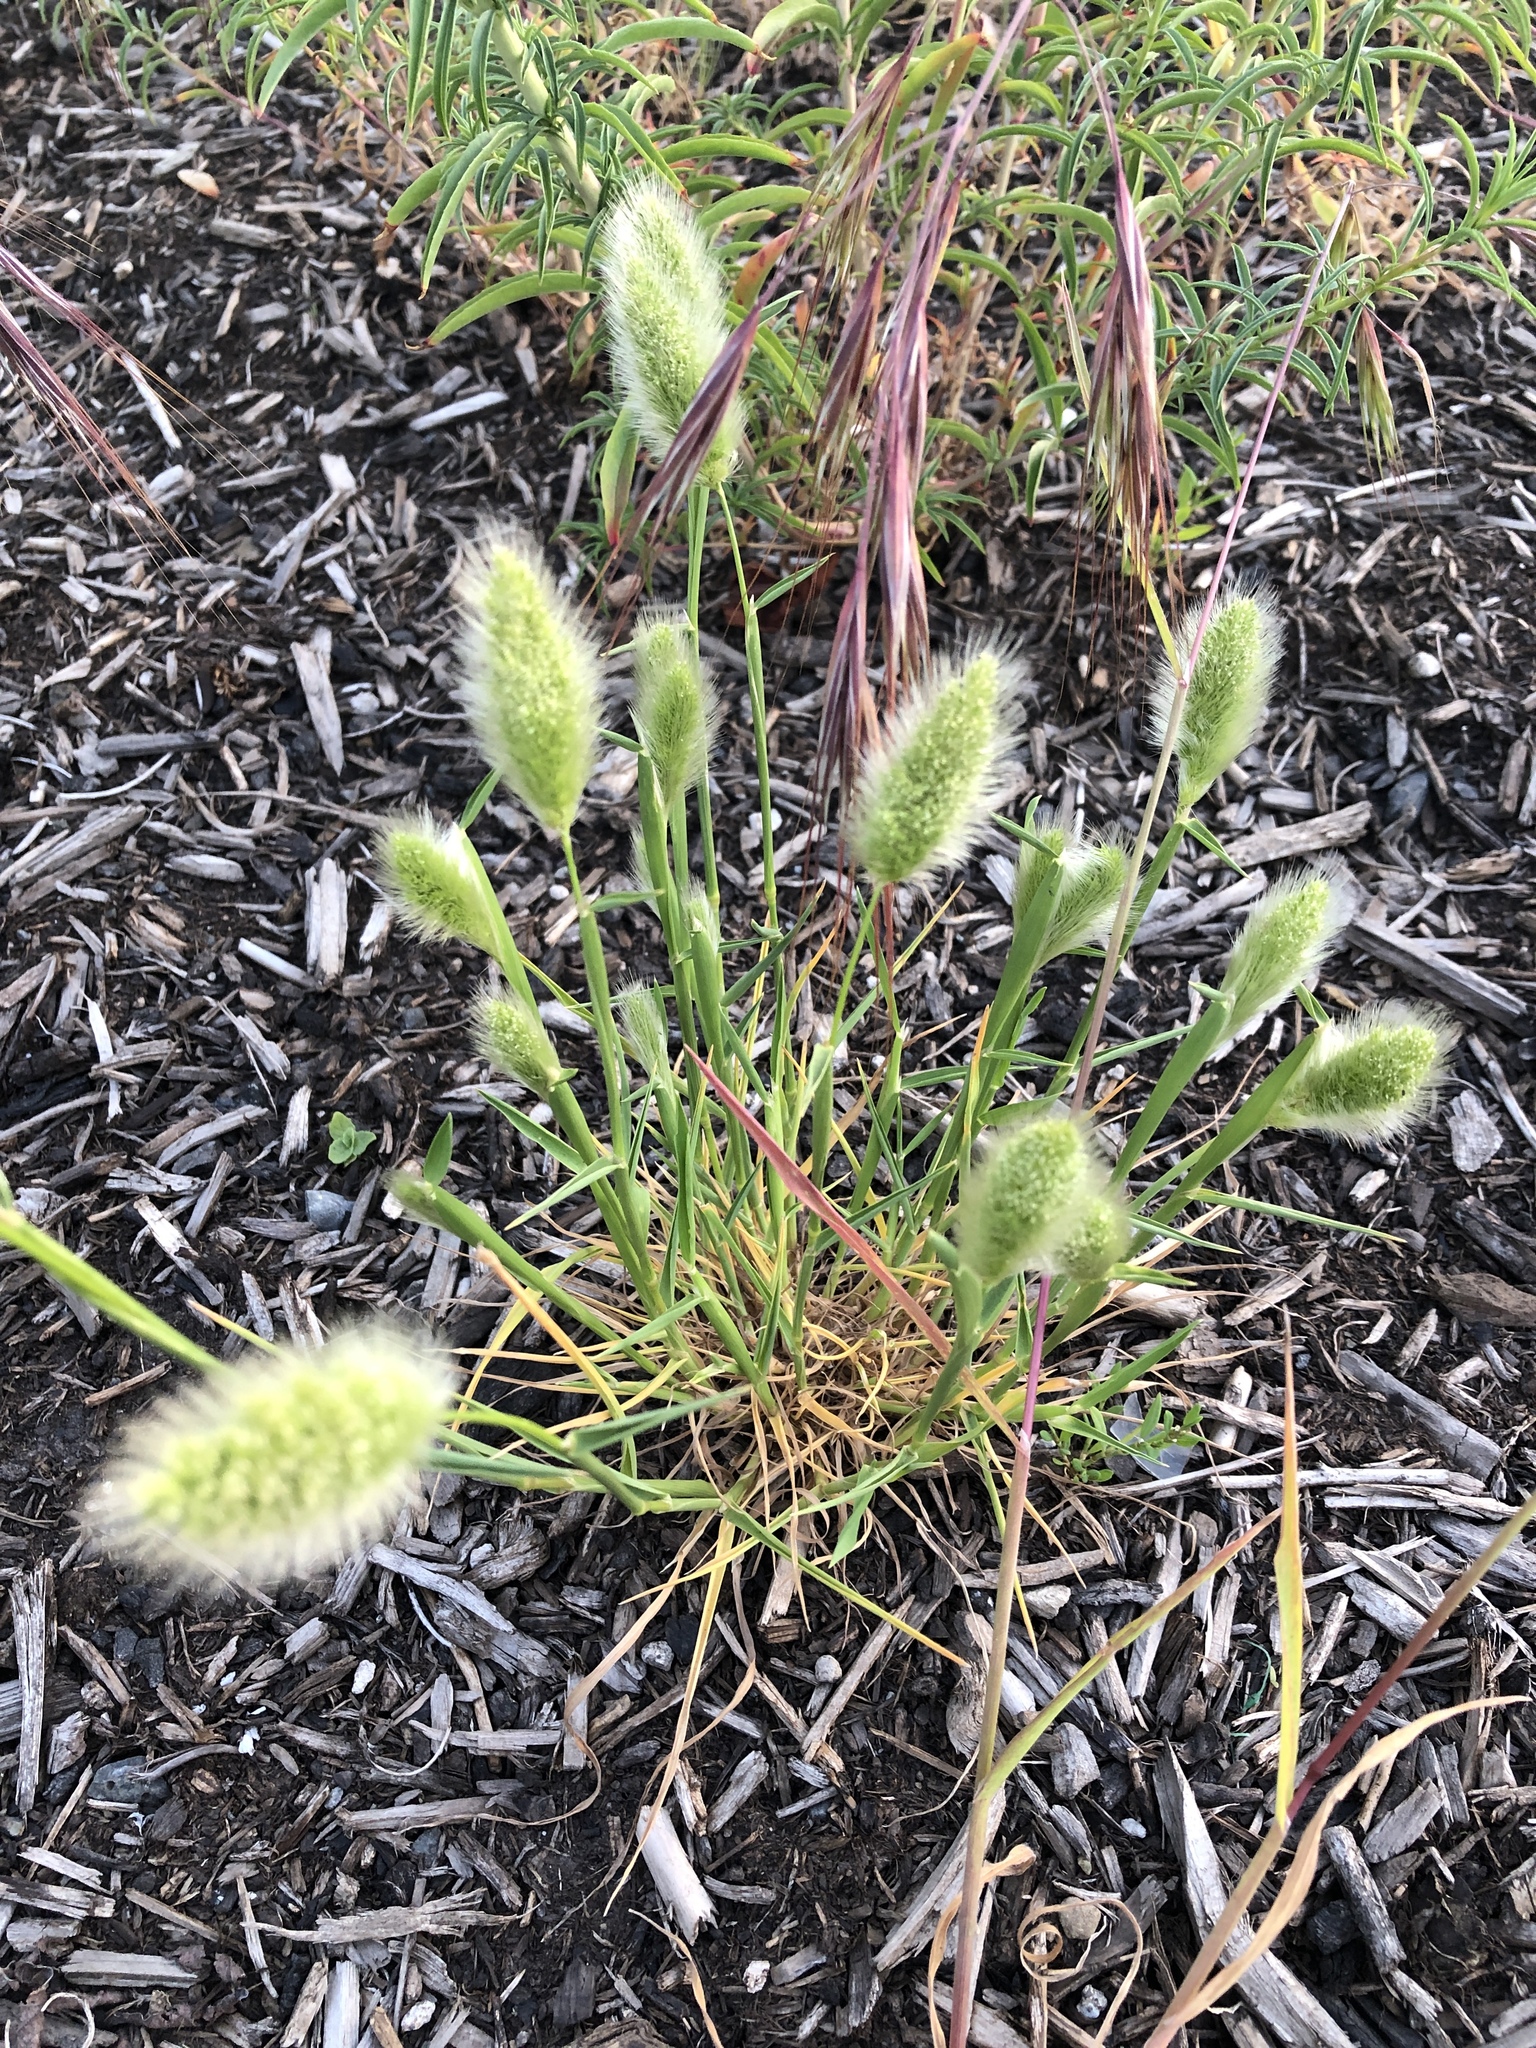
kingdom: Plantae
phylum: Tracheophyta
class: Liliopsida
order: Poales
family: Poaceae
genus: Polypogon
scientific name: Polypogon monspeliensis
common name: Annual rabbitsfoot grass
